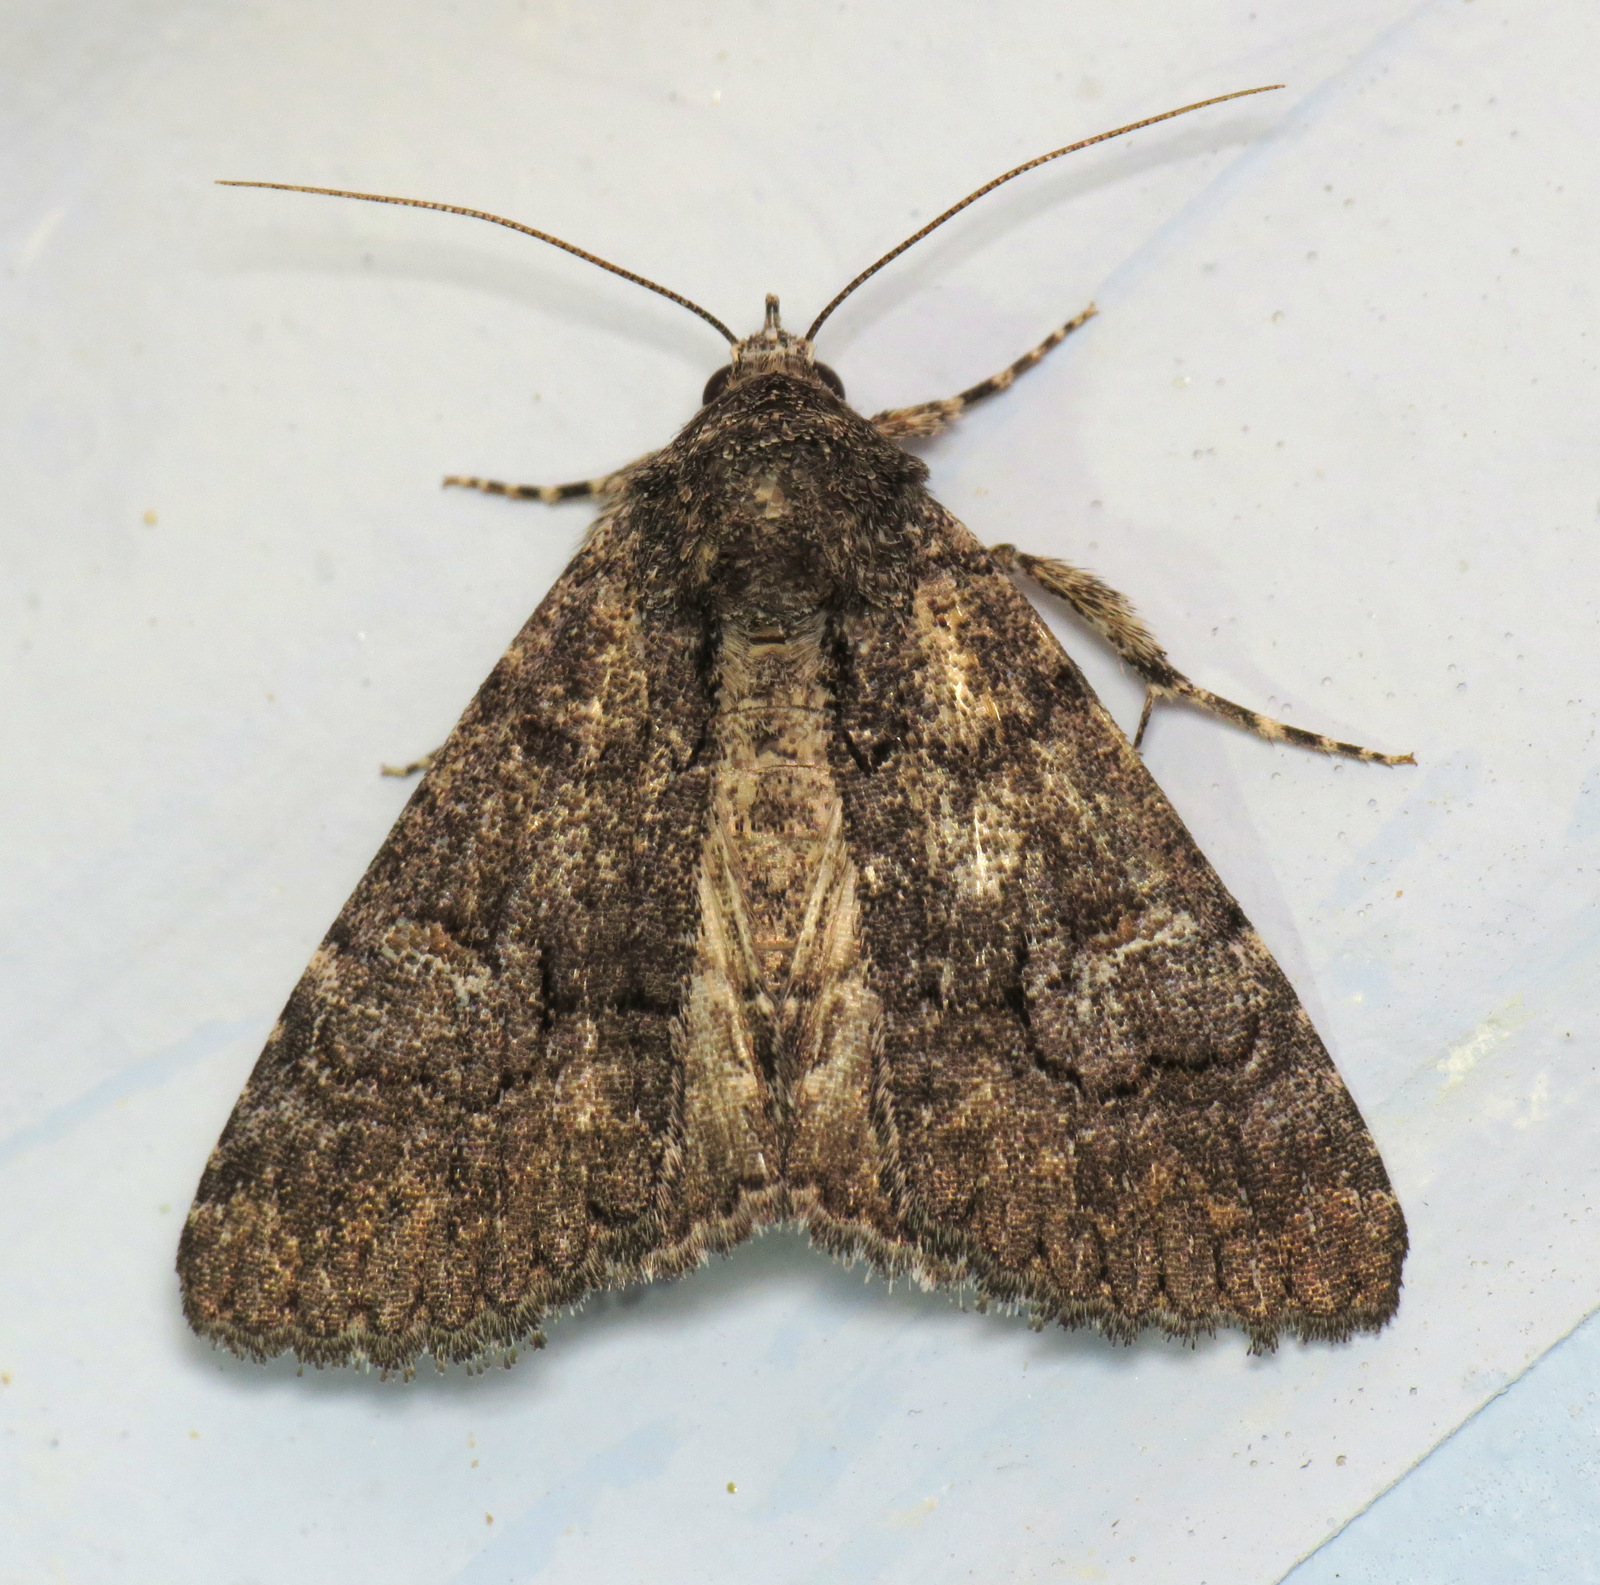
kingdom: Animalia
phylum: Arthropoda
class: Insecta
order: Lepidoptera
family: Erebidae
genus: Elousa
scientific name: Elousa mima
